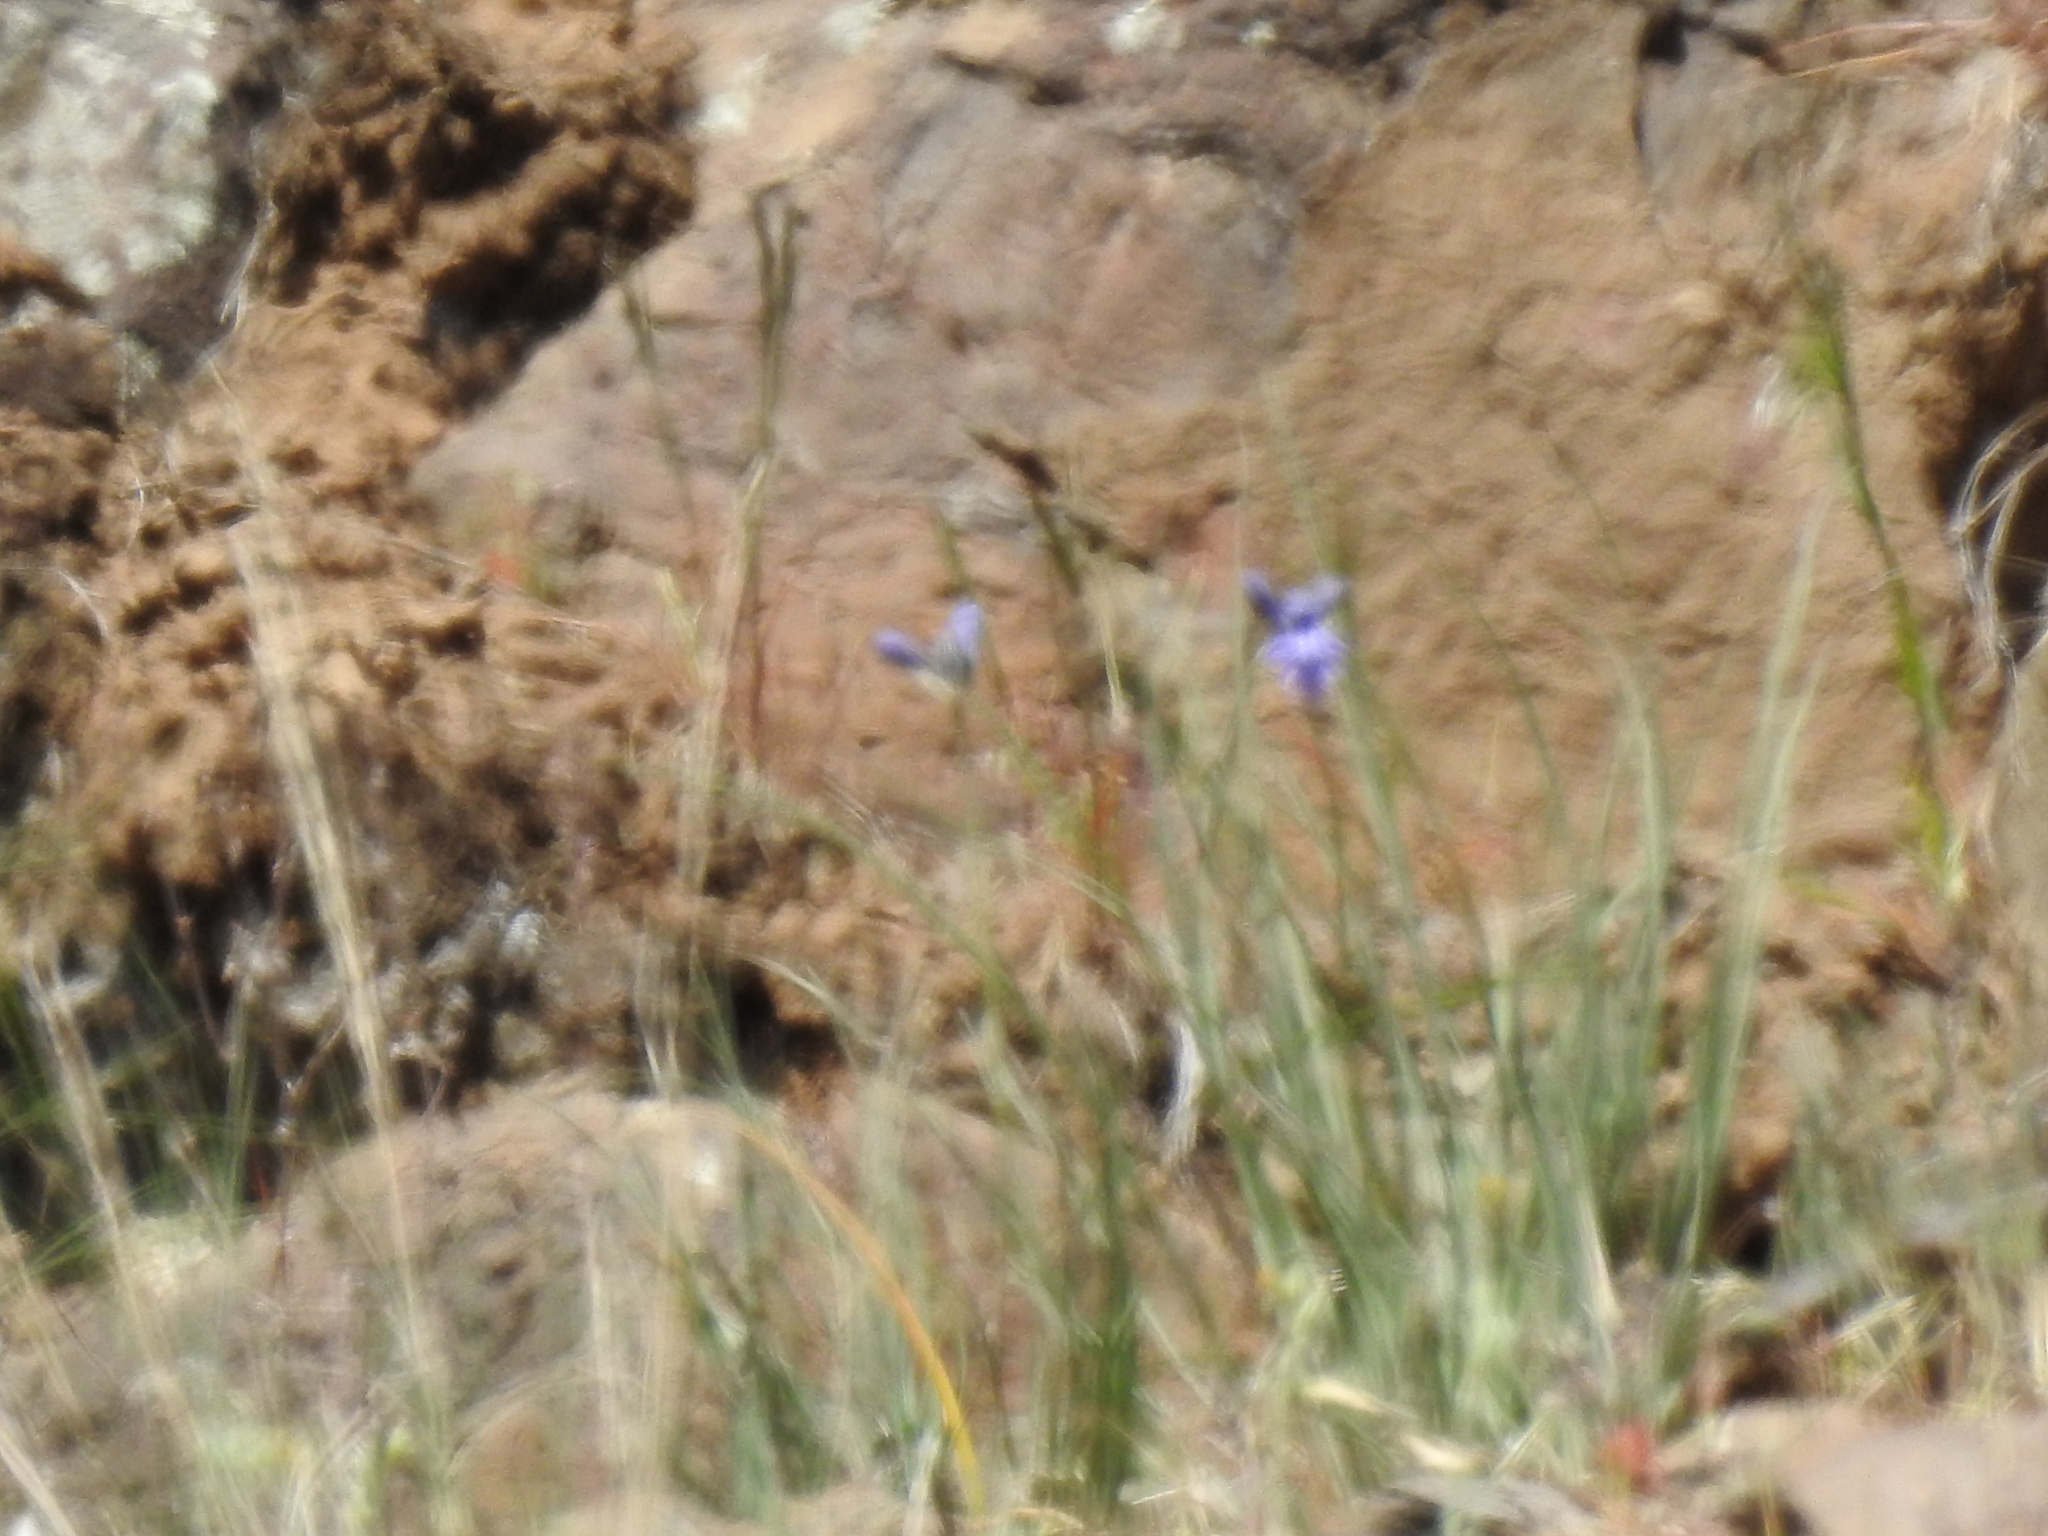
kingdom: Plantae
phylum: Tracheophyta
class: Liliopsida
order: Asparagales
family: Asparagaceae
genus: Triteleia
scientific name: Triteleia grandiflora
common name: Wild hyacinth
